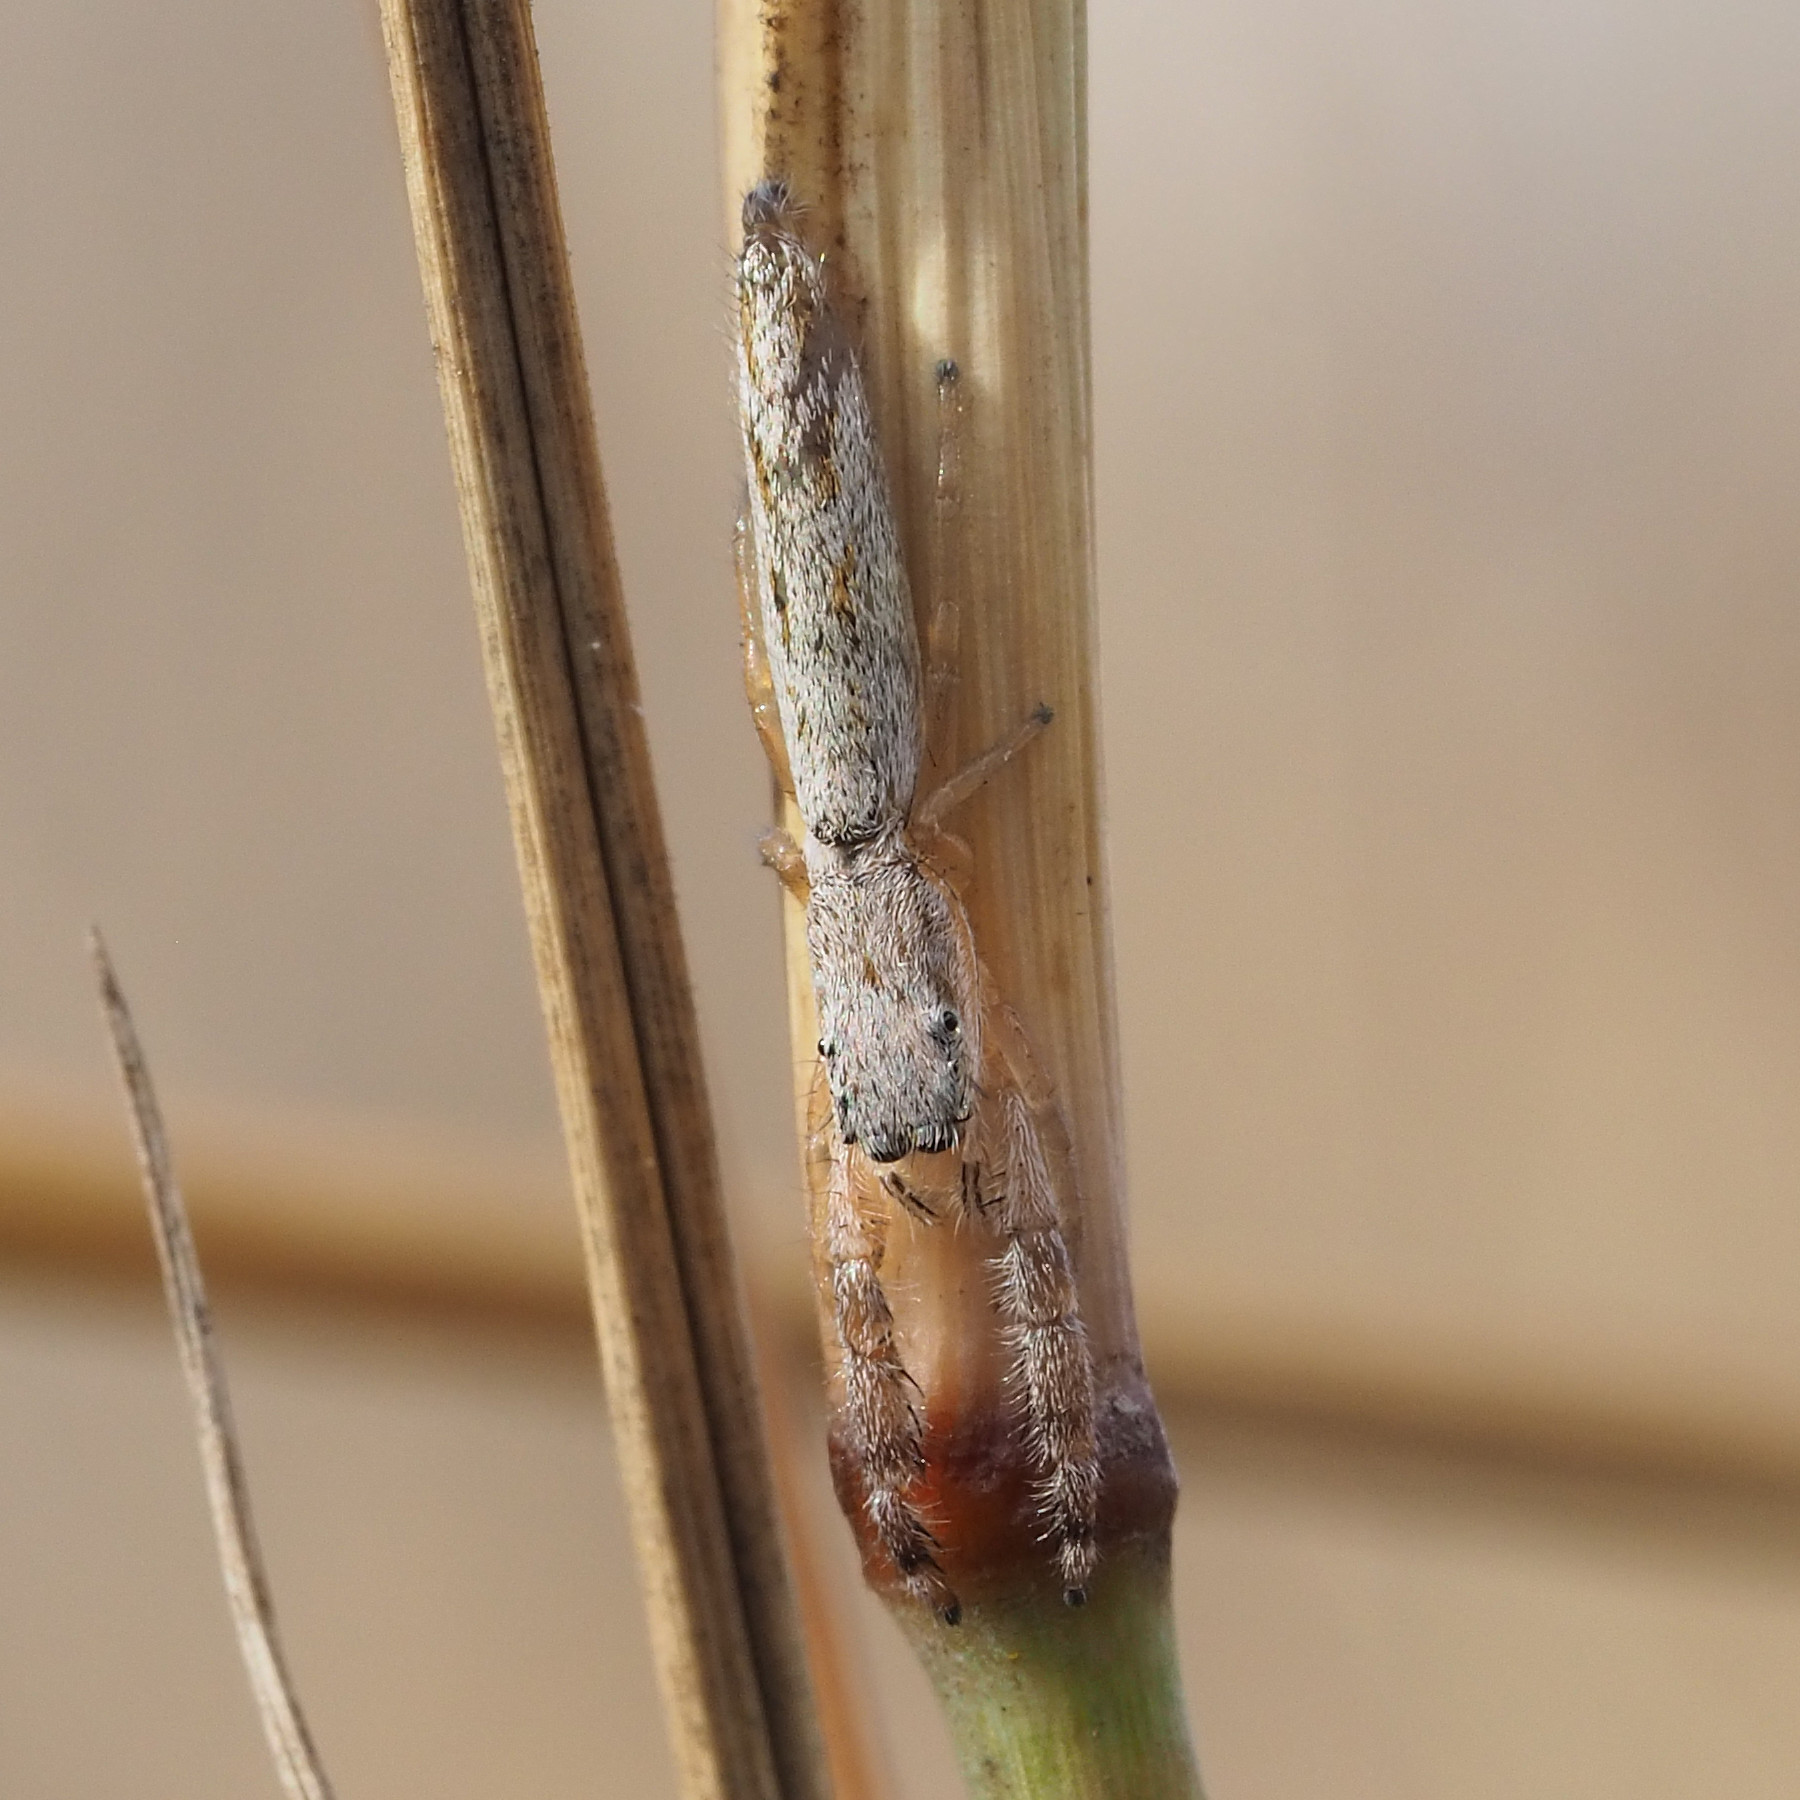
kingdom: Animalia
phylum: Arthropoda
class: Arachnida
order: Araneae
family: Salticidae
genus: Marpissa
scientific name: Marpissa pikei
